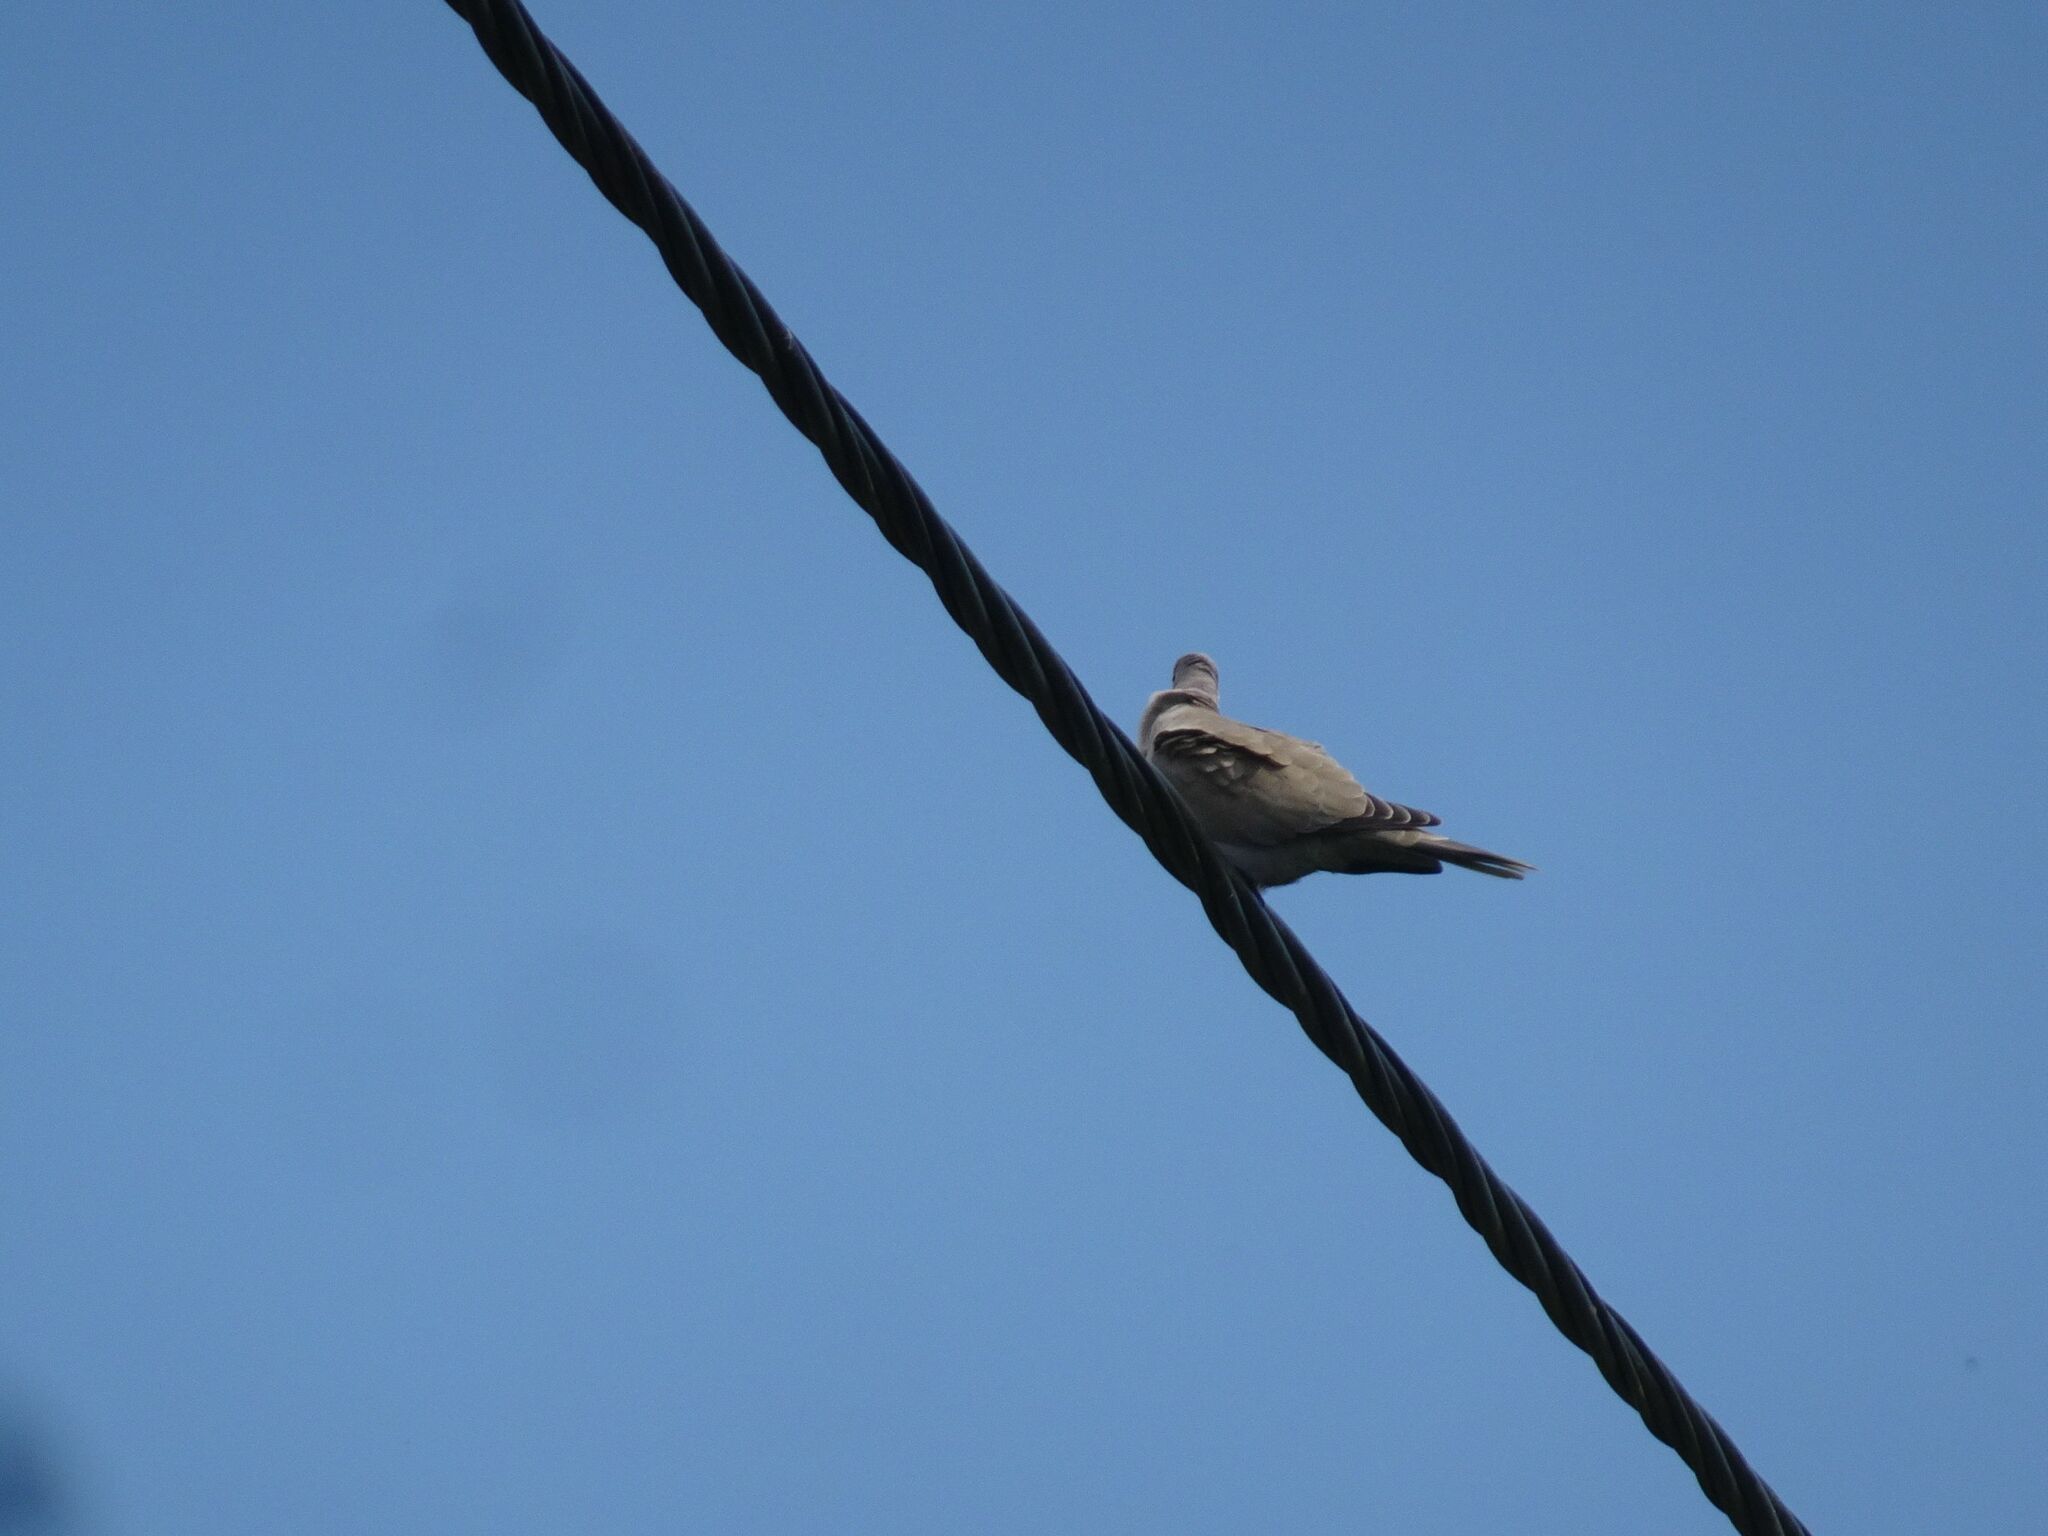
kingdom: Animalia
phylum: Chordata
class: Aves
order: Columbiformes
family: Columbidae
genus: Streptopelia
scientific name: Streptopelia decaocto
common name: Eurasian collared dove
